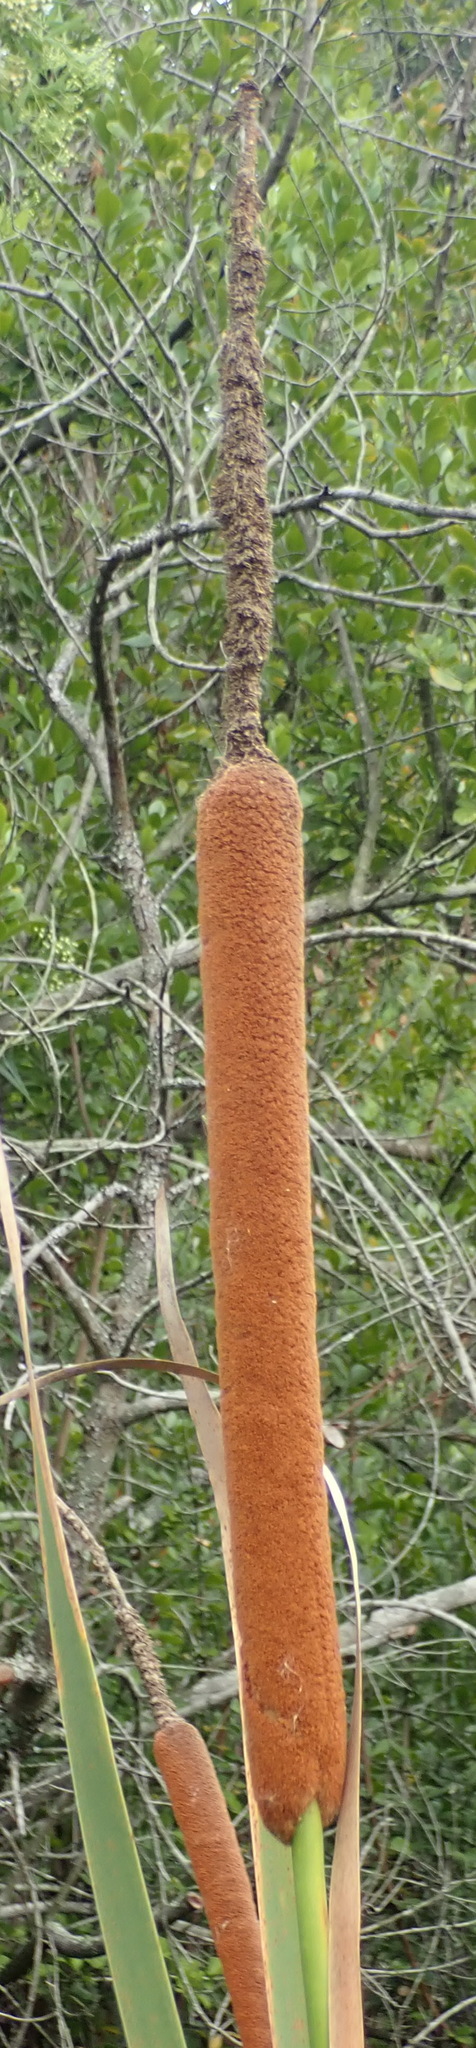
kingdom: Plantae
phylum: Tracheophyta
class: Liliopsida
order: Poales
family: Typhaceae
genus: Typha
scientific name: Typha capensis
